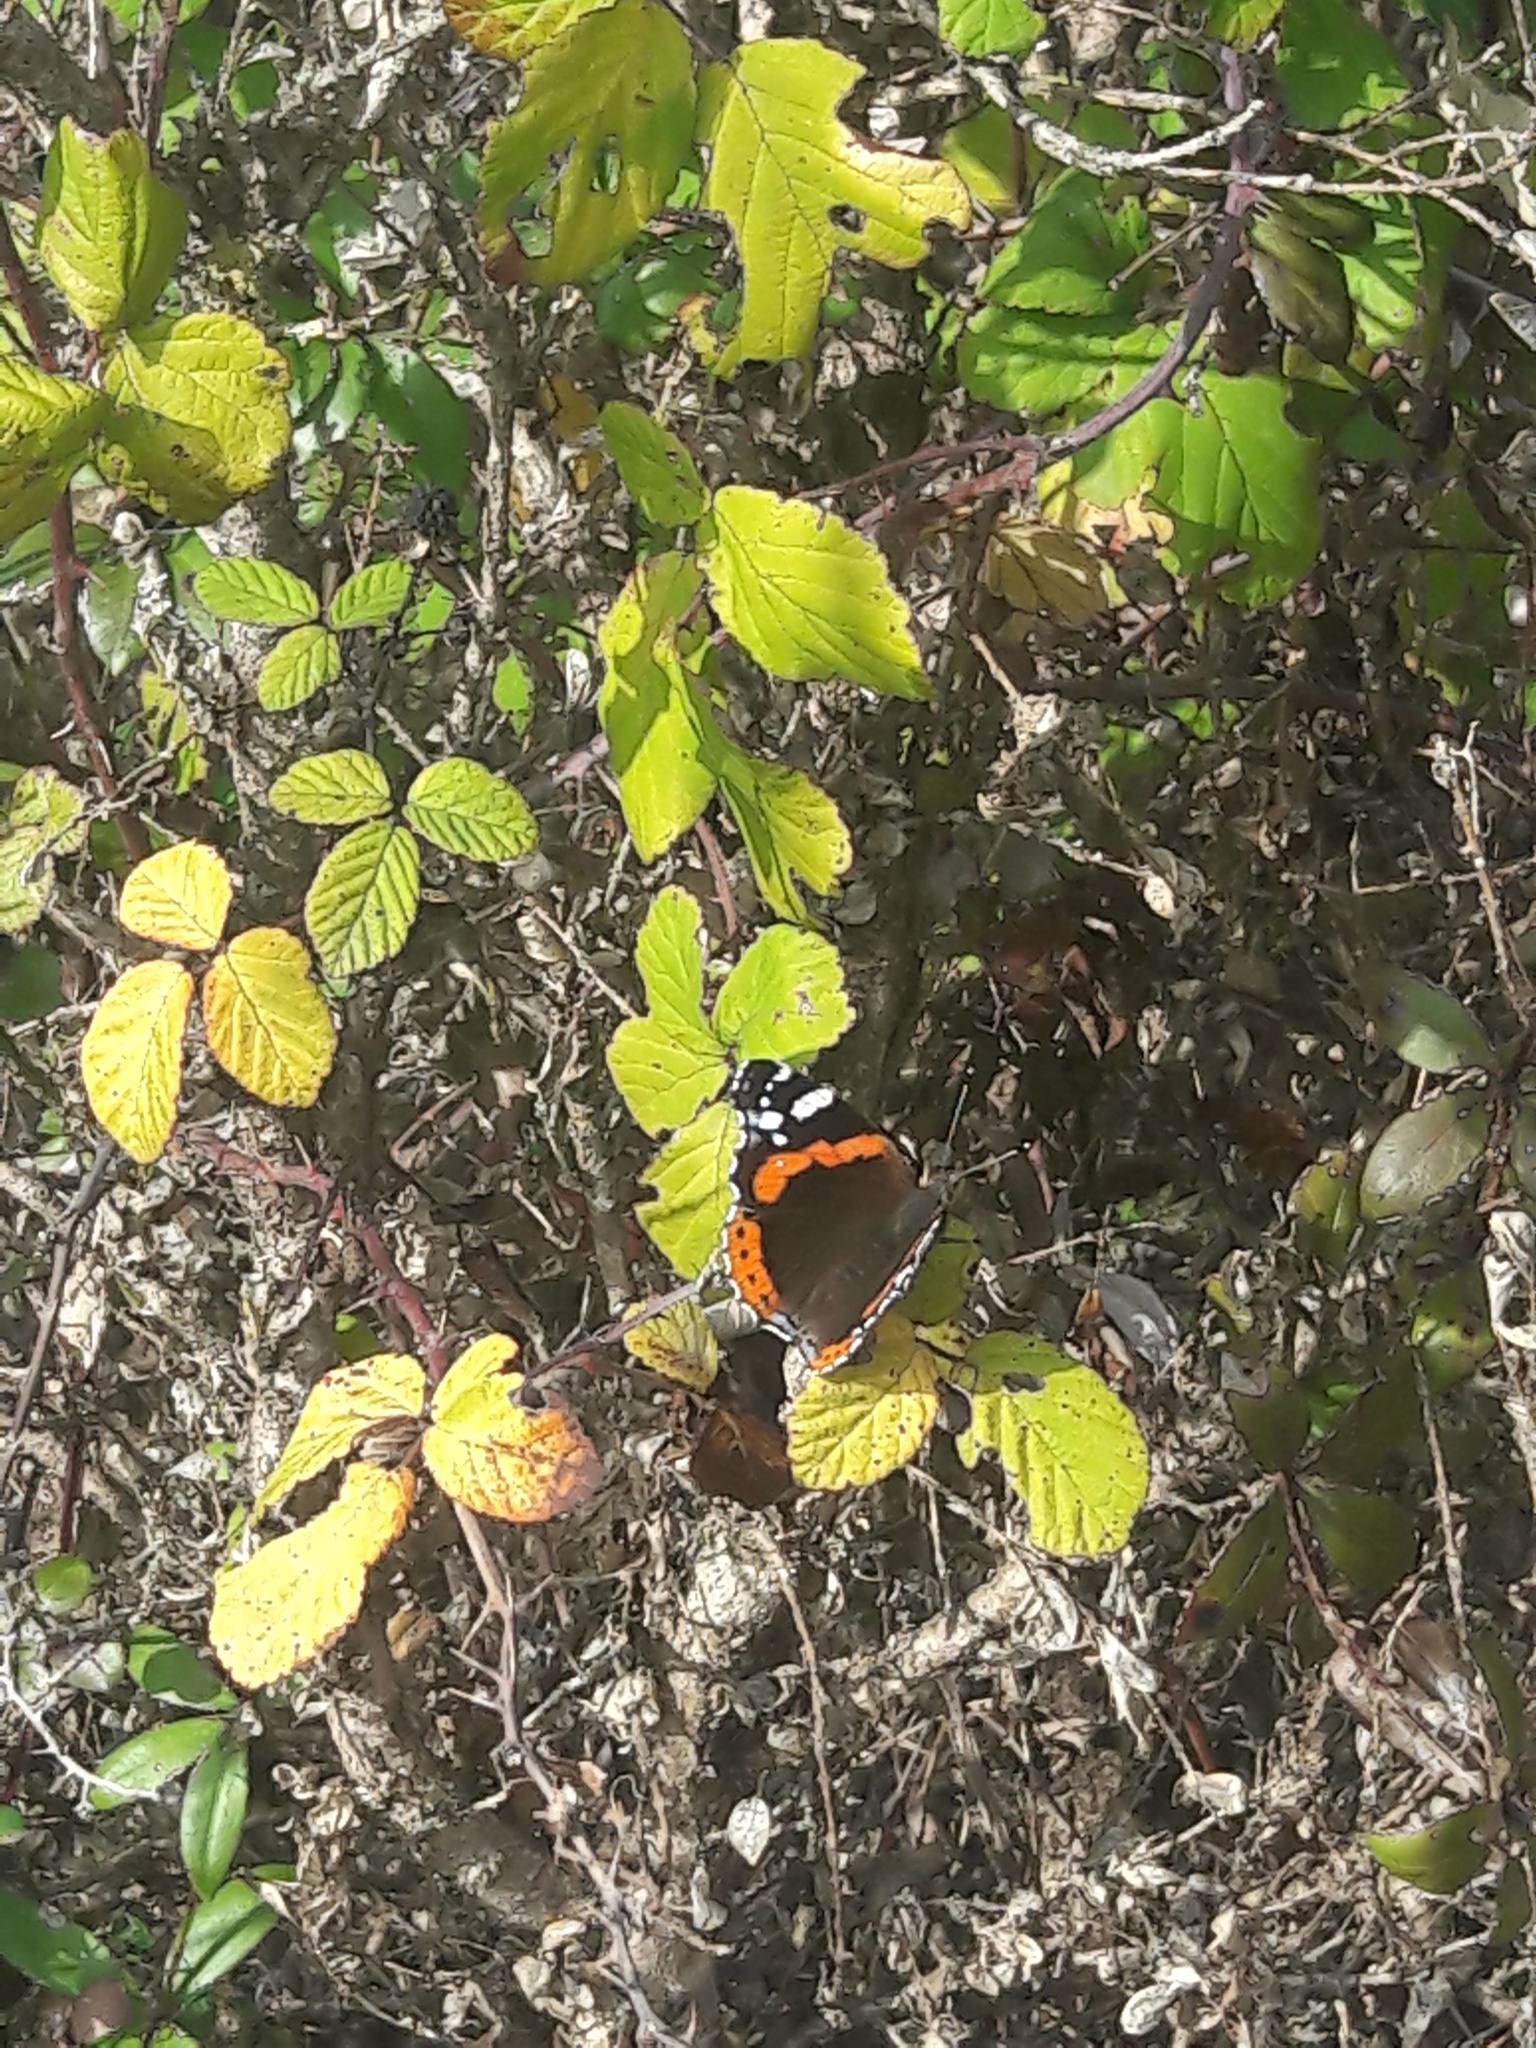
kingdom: Animalia
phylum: Arthropoda
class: Insecta
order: Lepidoptera
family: Nymphalidae
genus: Vanessa
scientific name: Vanessa atalanta
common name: Red admiral
